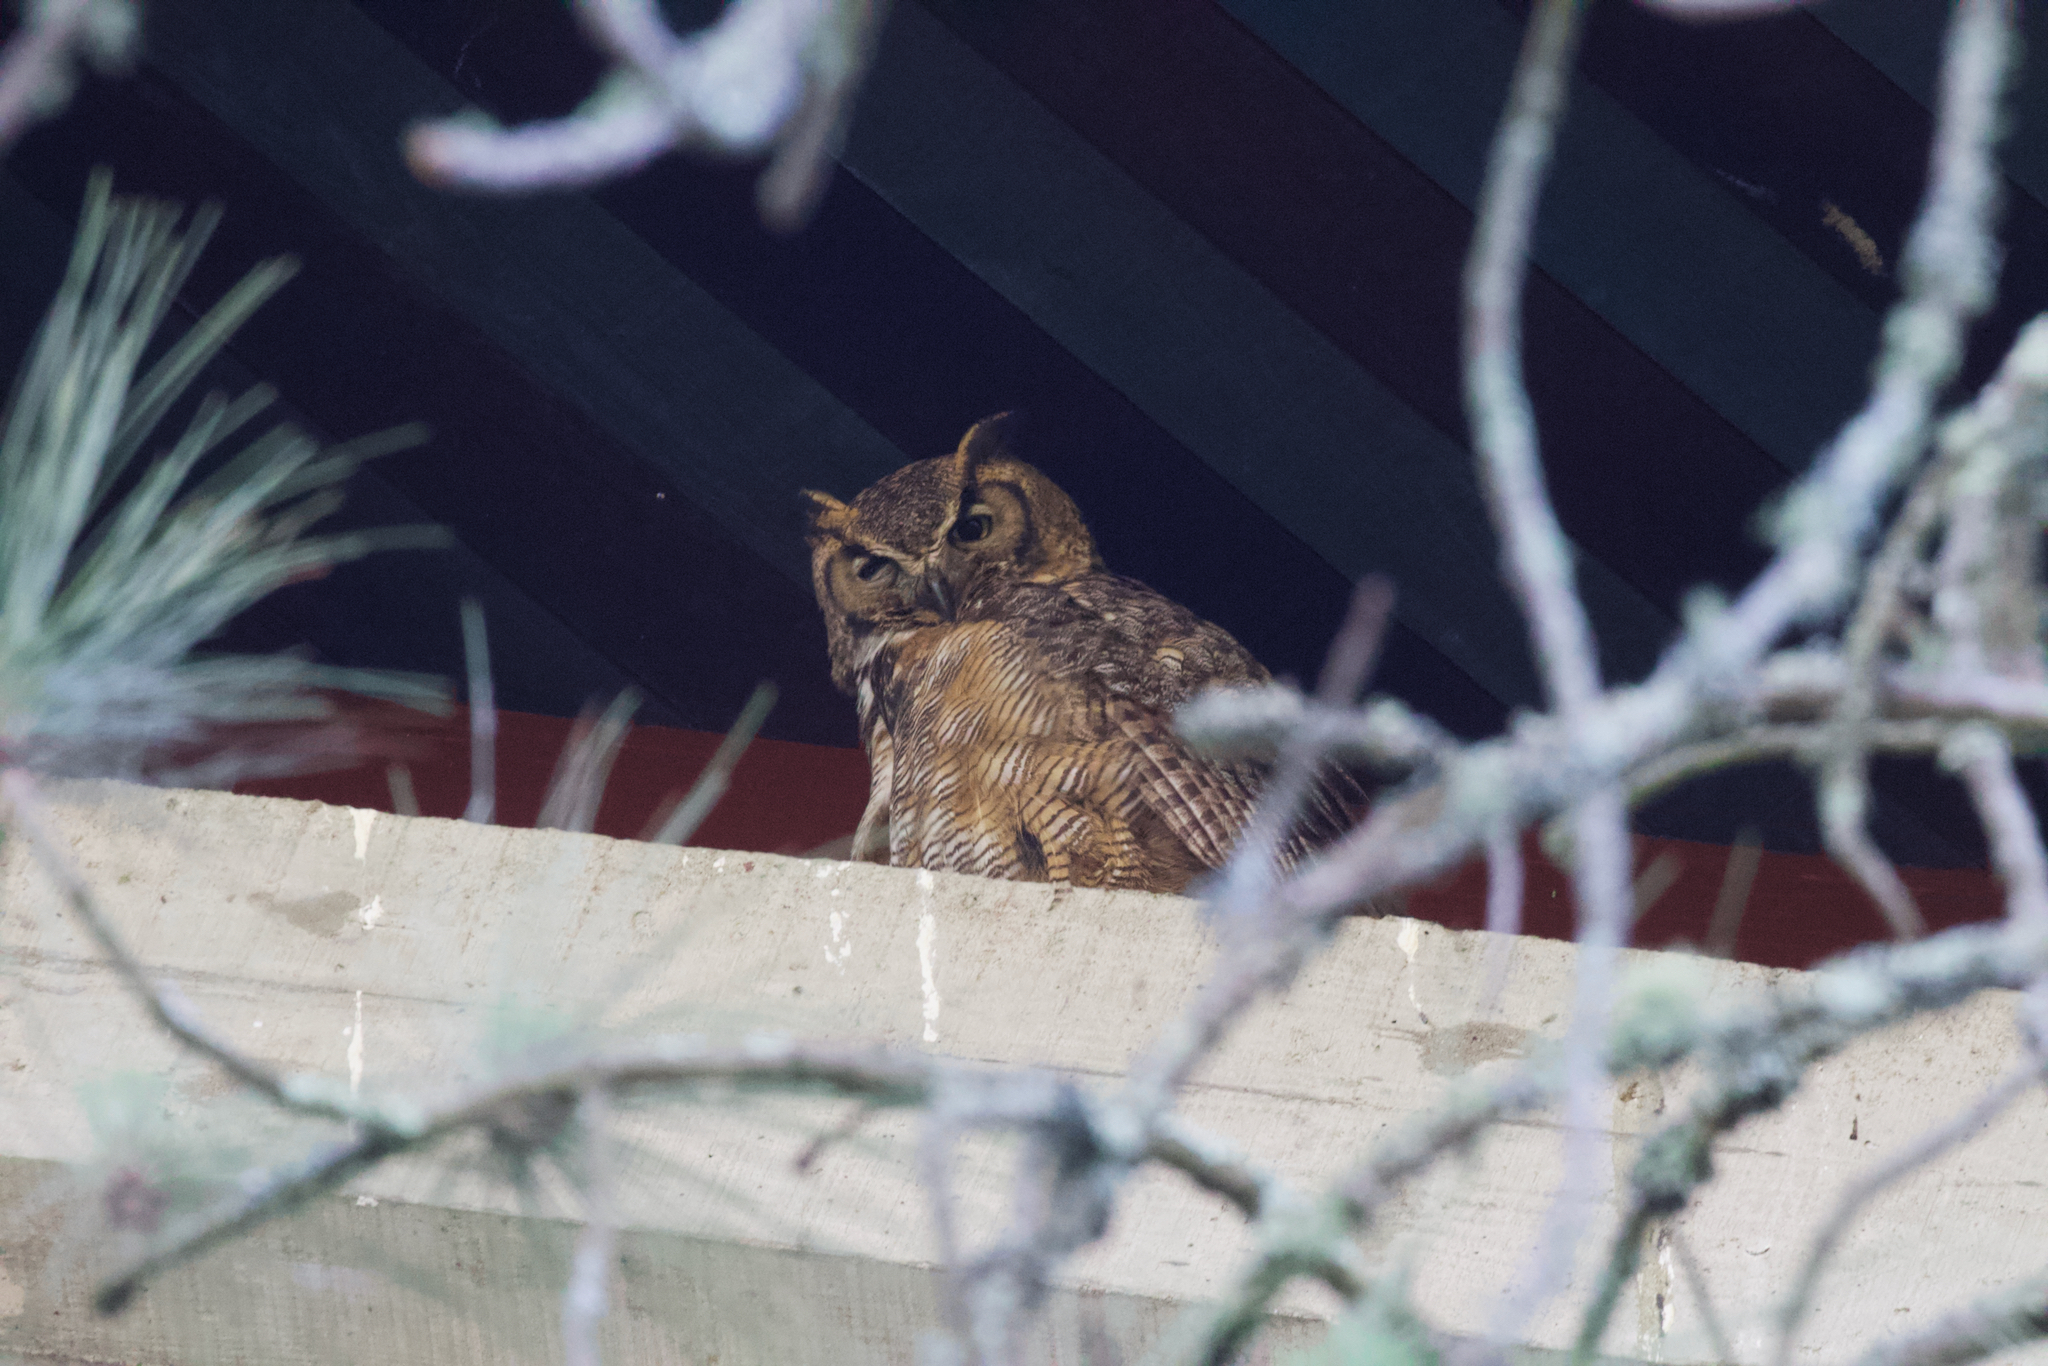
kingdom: Animalia
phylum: Chordata
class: Aves
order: Strigiformes
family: Strigidae
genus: Bubo
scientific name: Bubo virginianus
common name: Great horned owl
